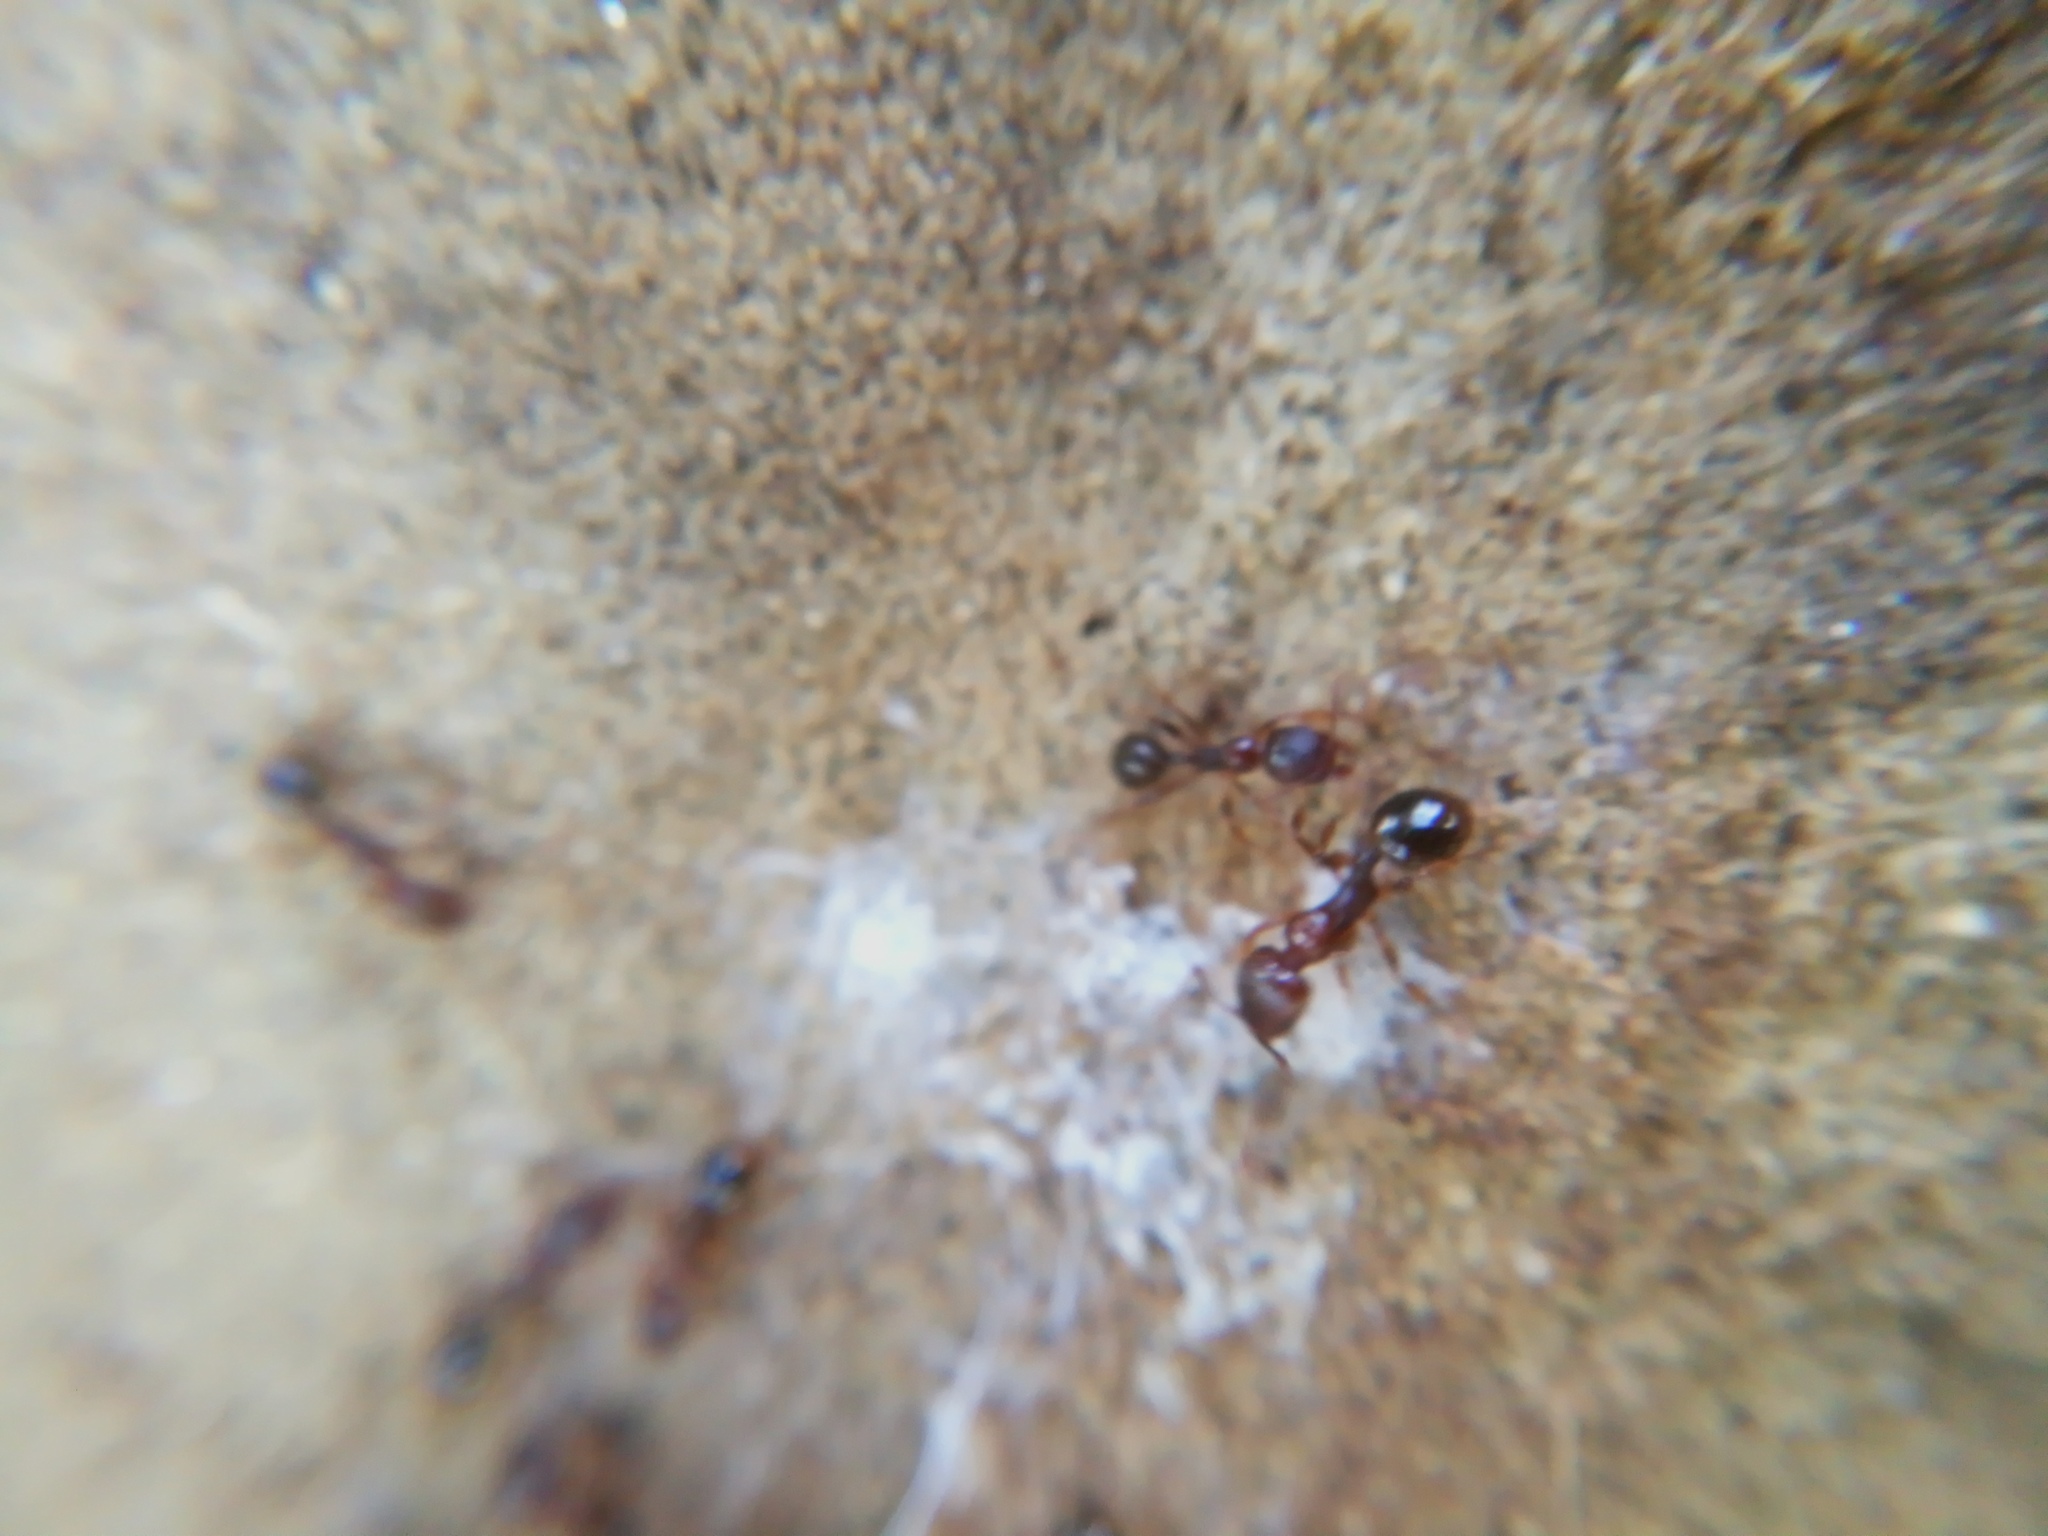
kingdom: Animalia
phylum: Arthropoda
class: Insecta
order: Hymenoptera
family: Formicidae
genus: Aphaenogaster
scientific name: Aphaenogaster subterranea
